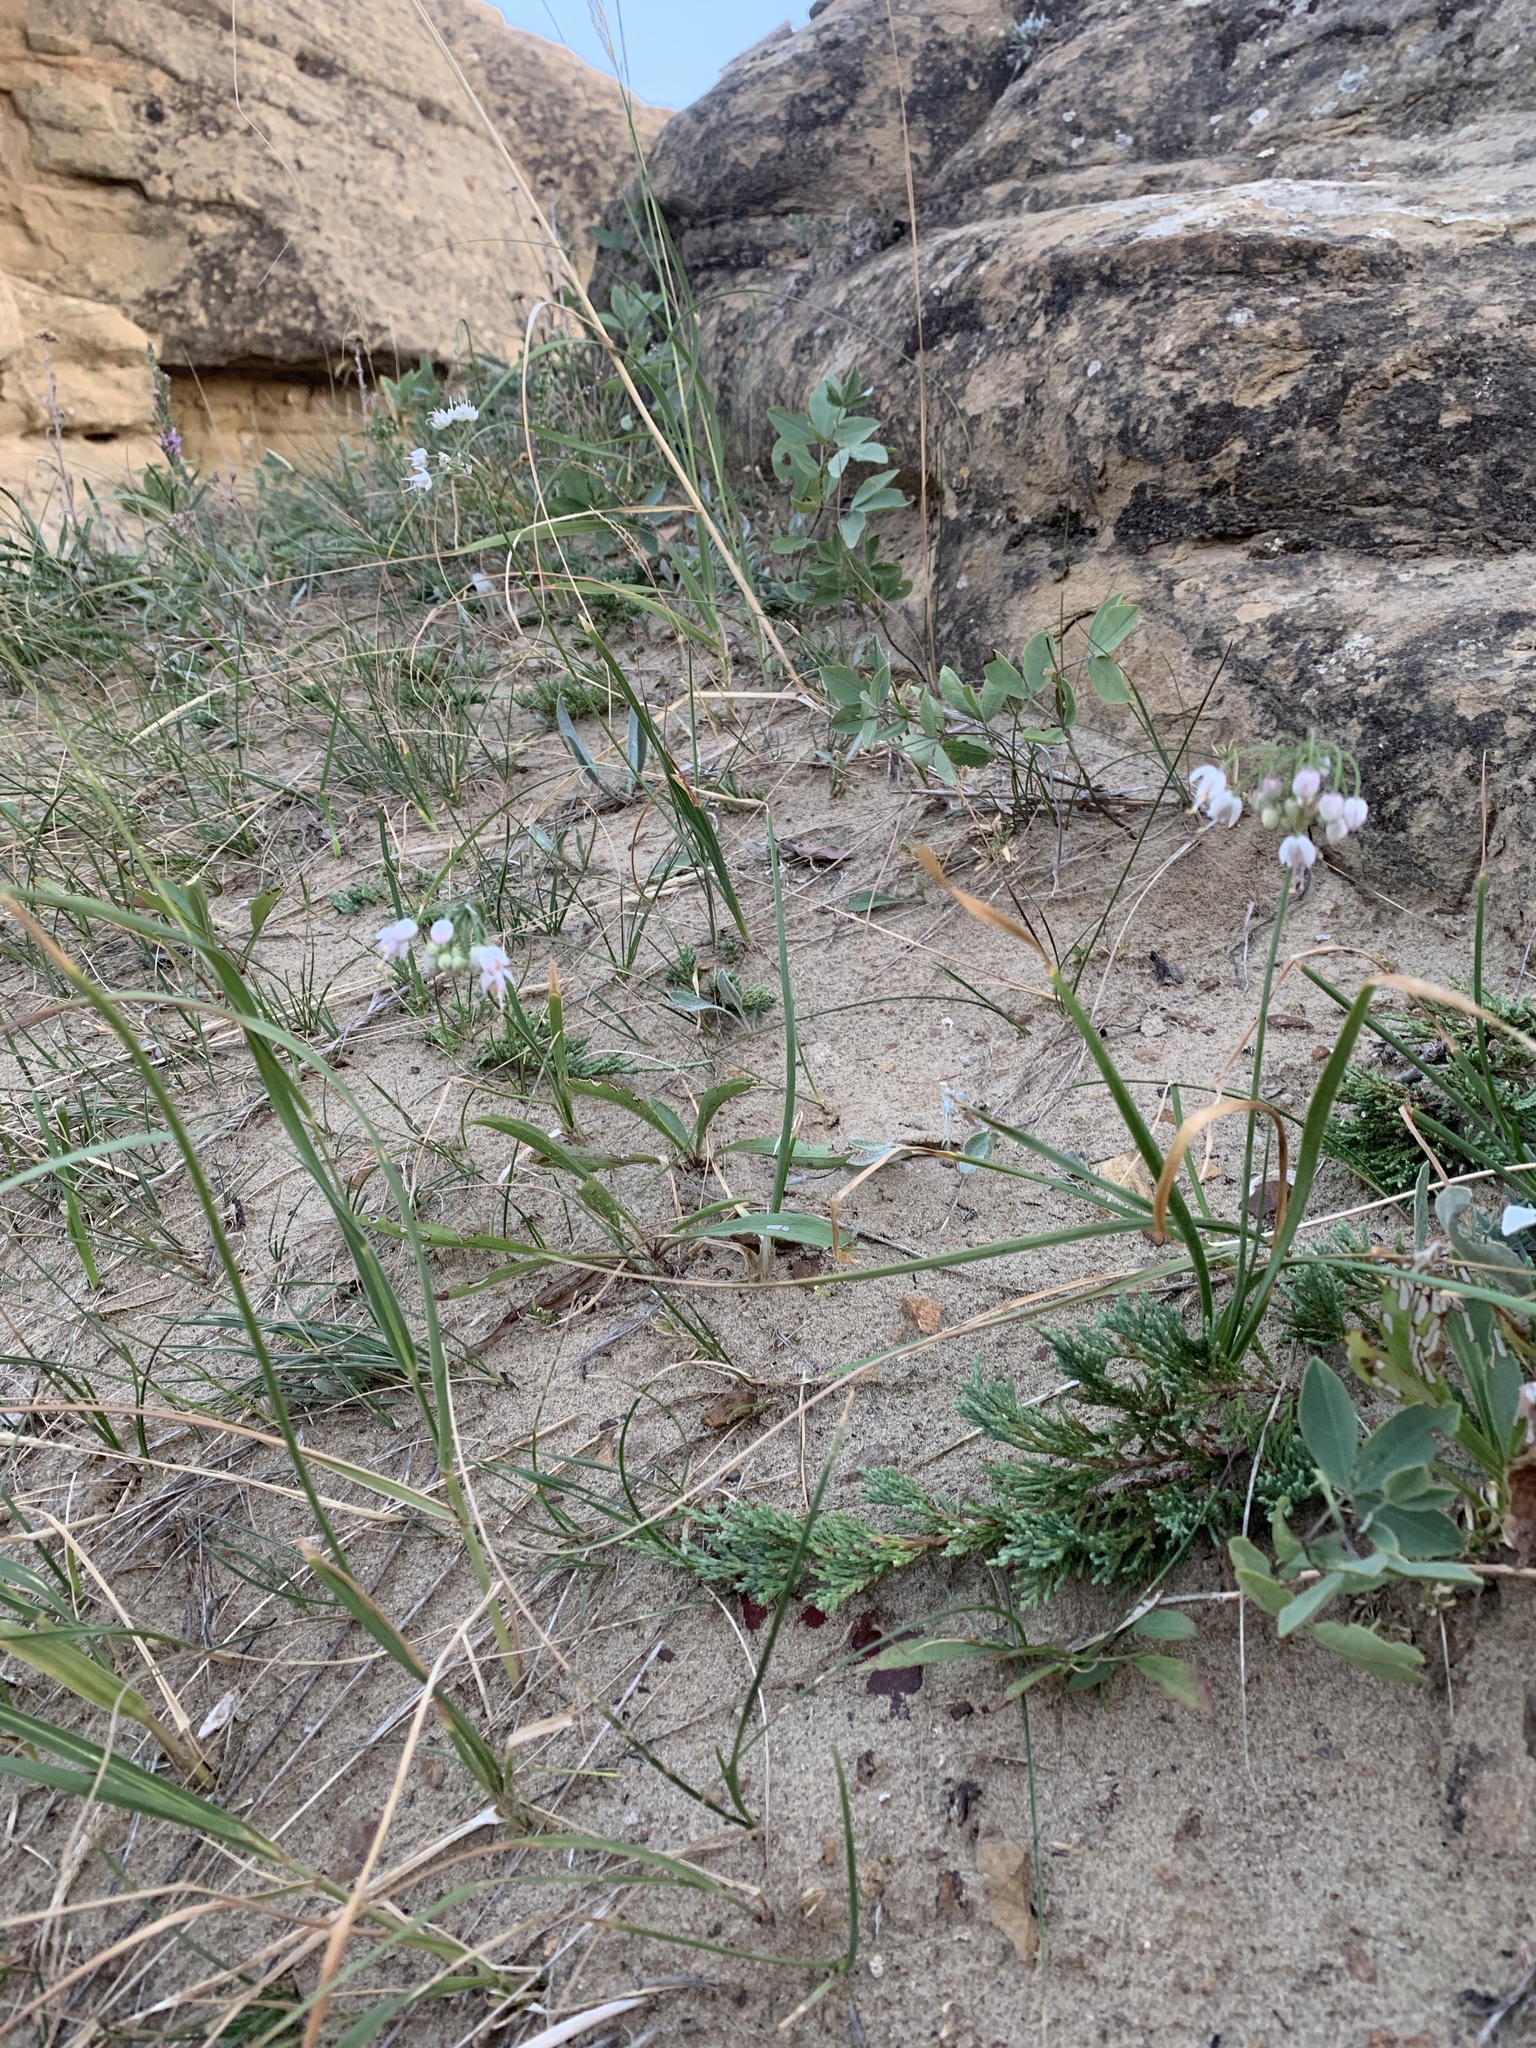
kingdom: Plantae
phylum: Tracheophyta
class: Liliopsida
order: Asparagales
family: Amaryllidaceae
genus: Allium
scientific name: Allium cernuum
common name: Nodding onion
